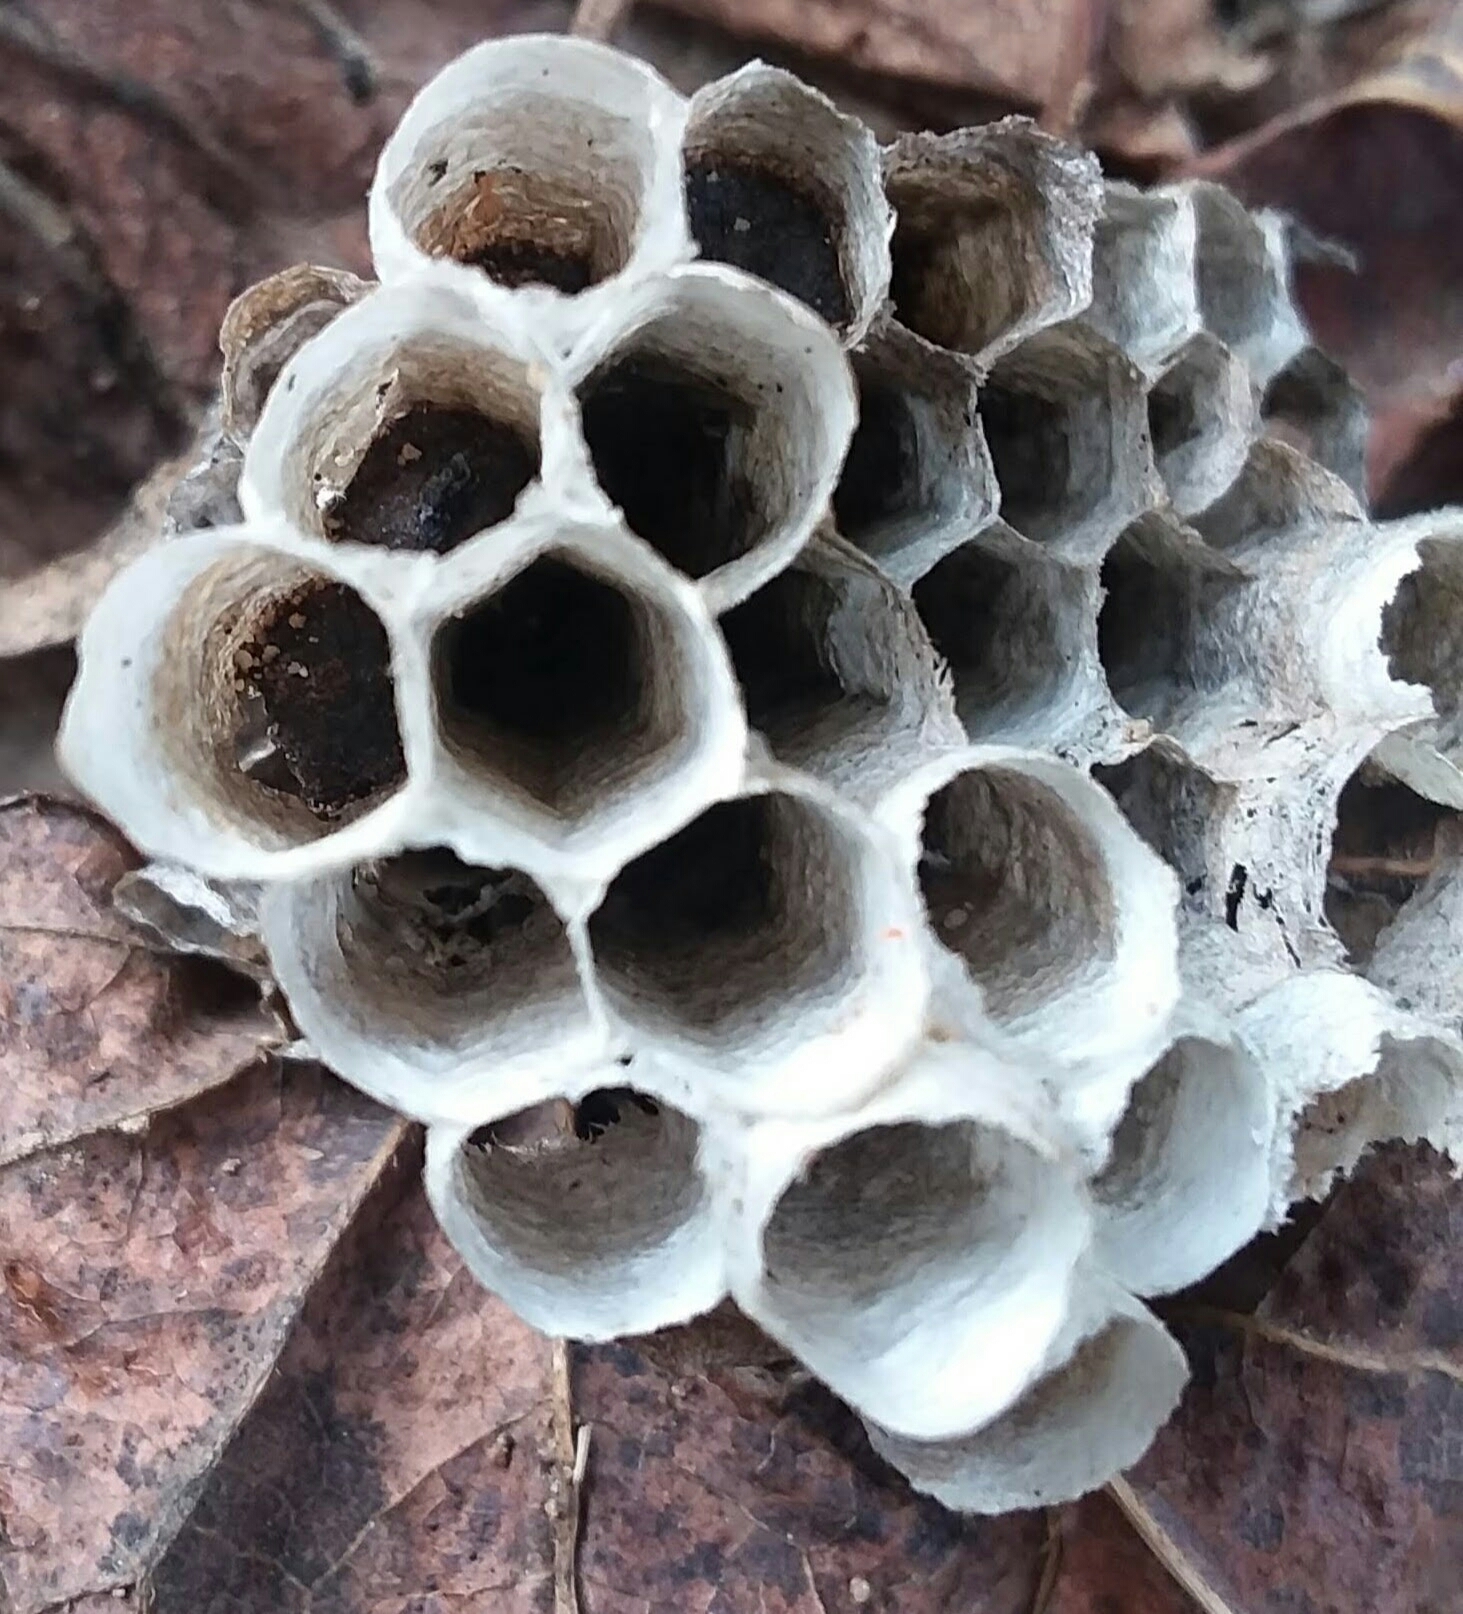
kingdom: Animalia
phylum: Arthropoda
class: Insecta
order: Hymenoptera
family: Eumenidae
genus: Polistes
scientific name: Polistes
